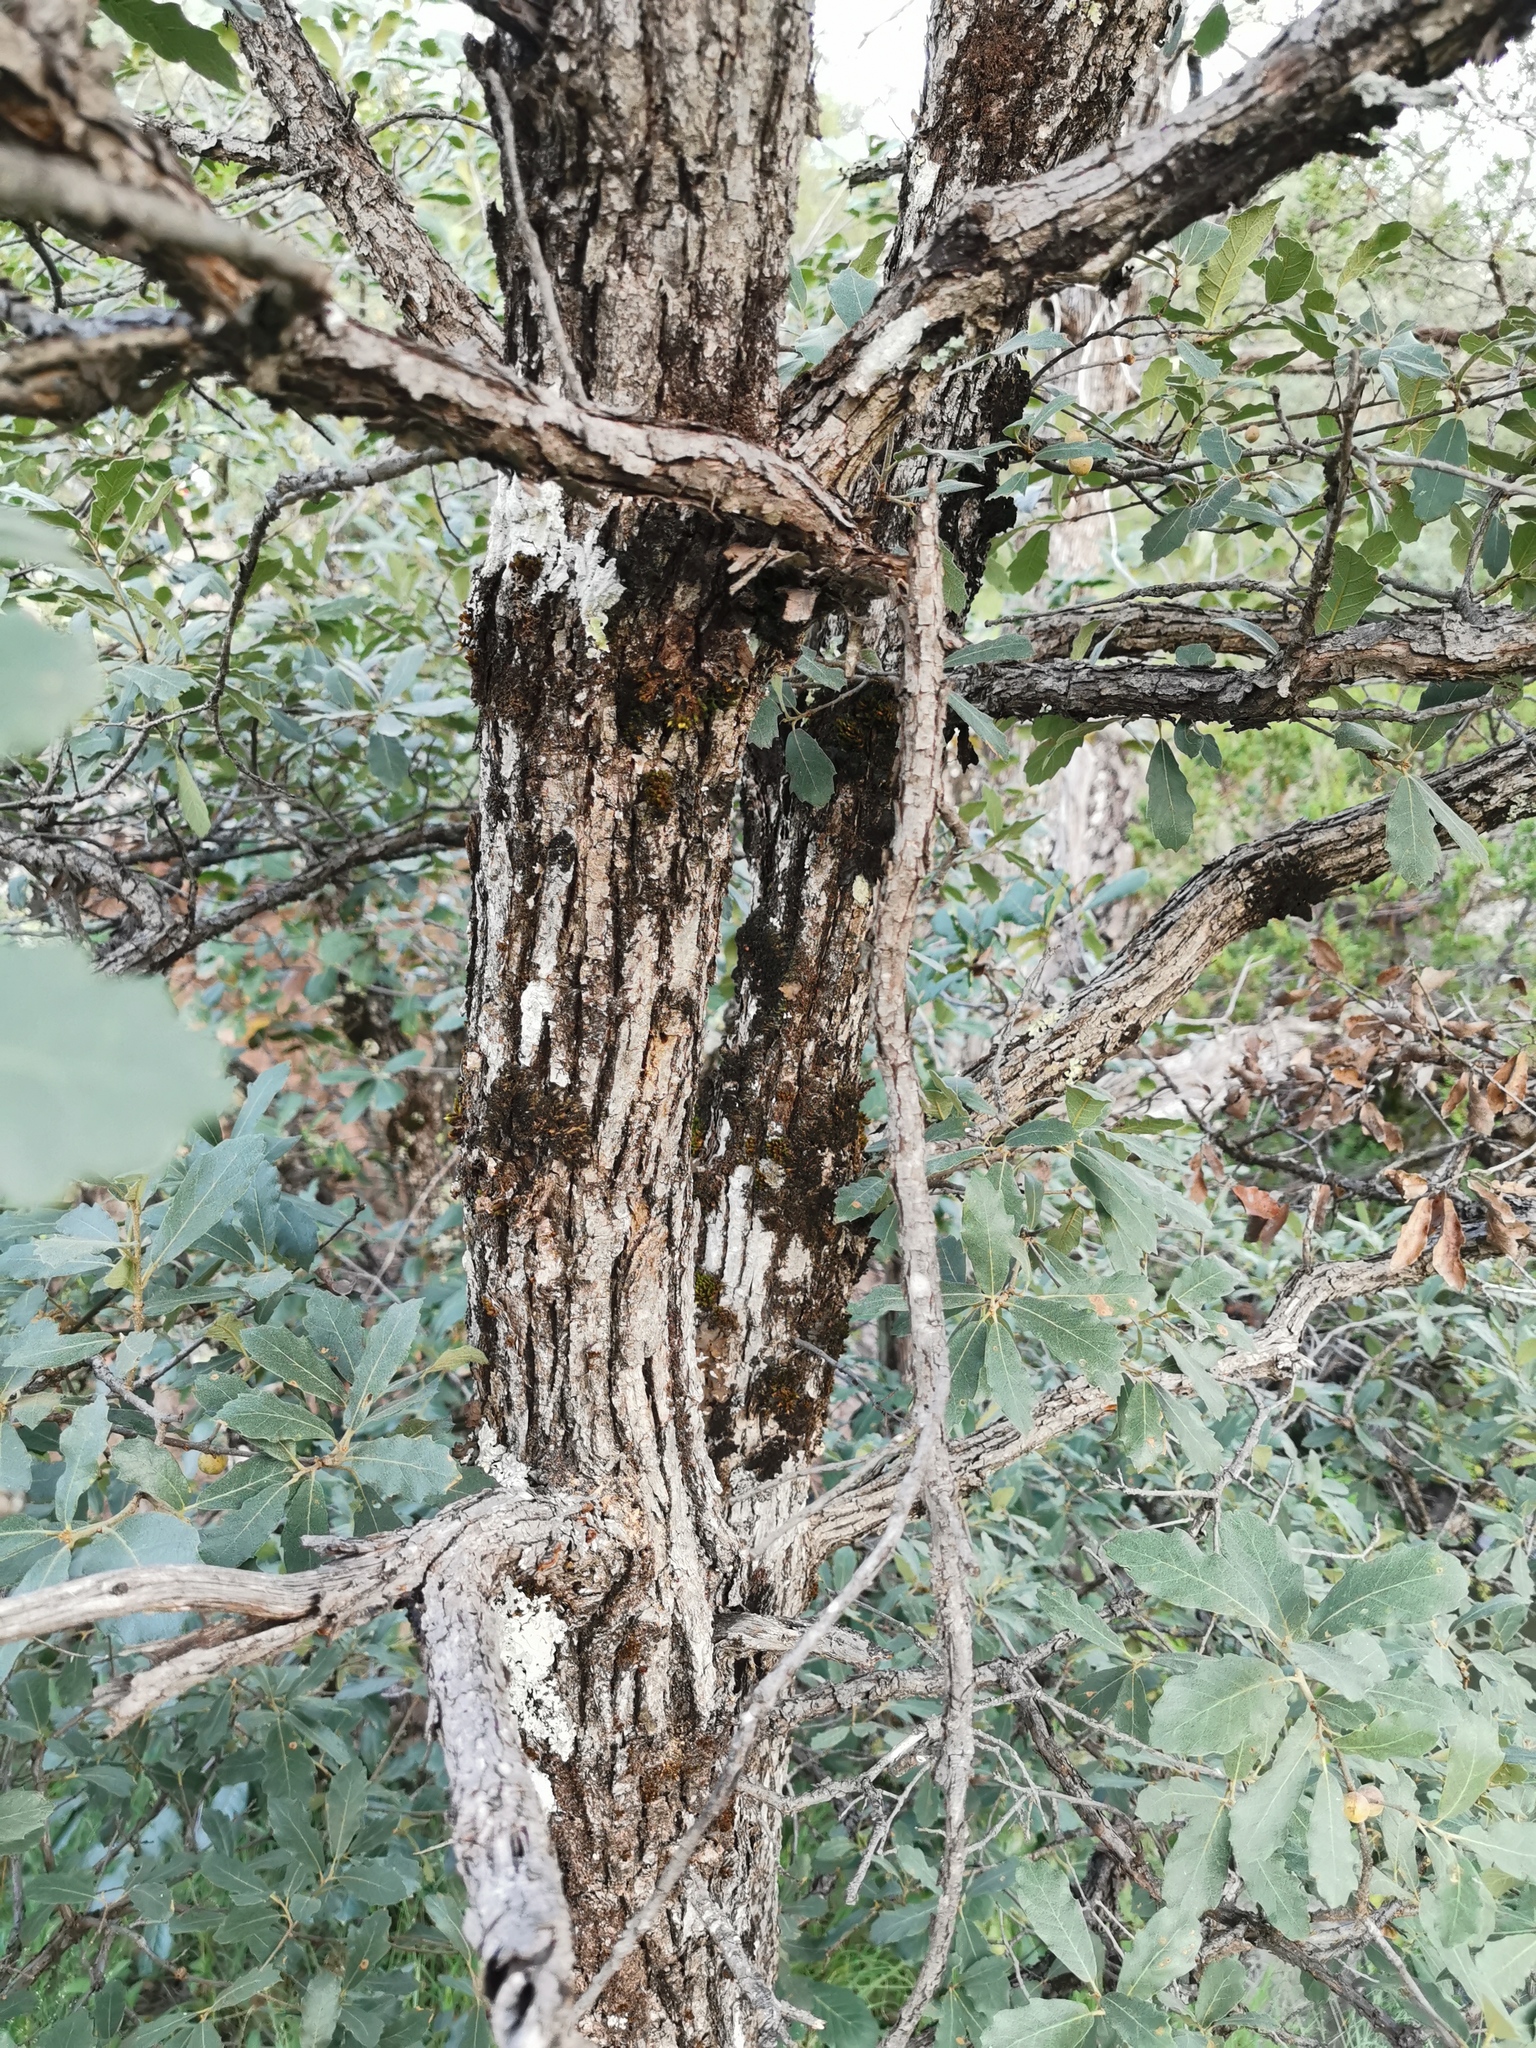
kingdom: Plantae
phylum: Tracheophyta
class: Magnoliopsida
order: Fagales
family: Fagaceae
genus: Quercus
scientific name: Quercus arizonica
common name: Arizona white oak
